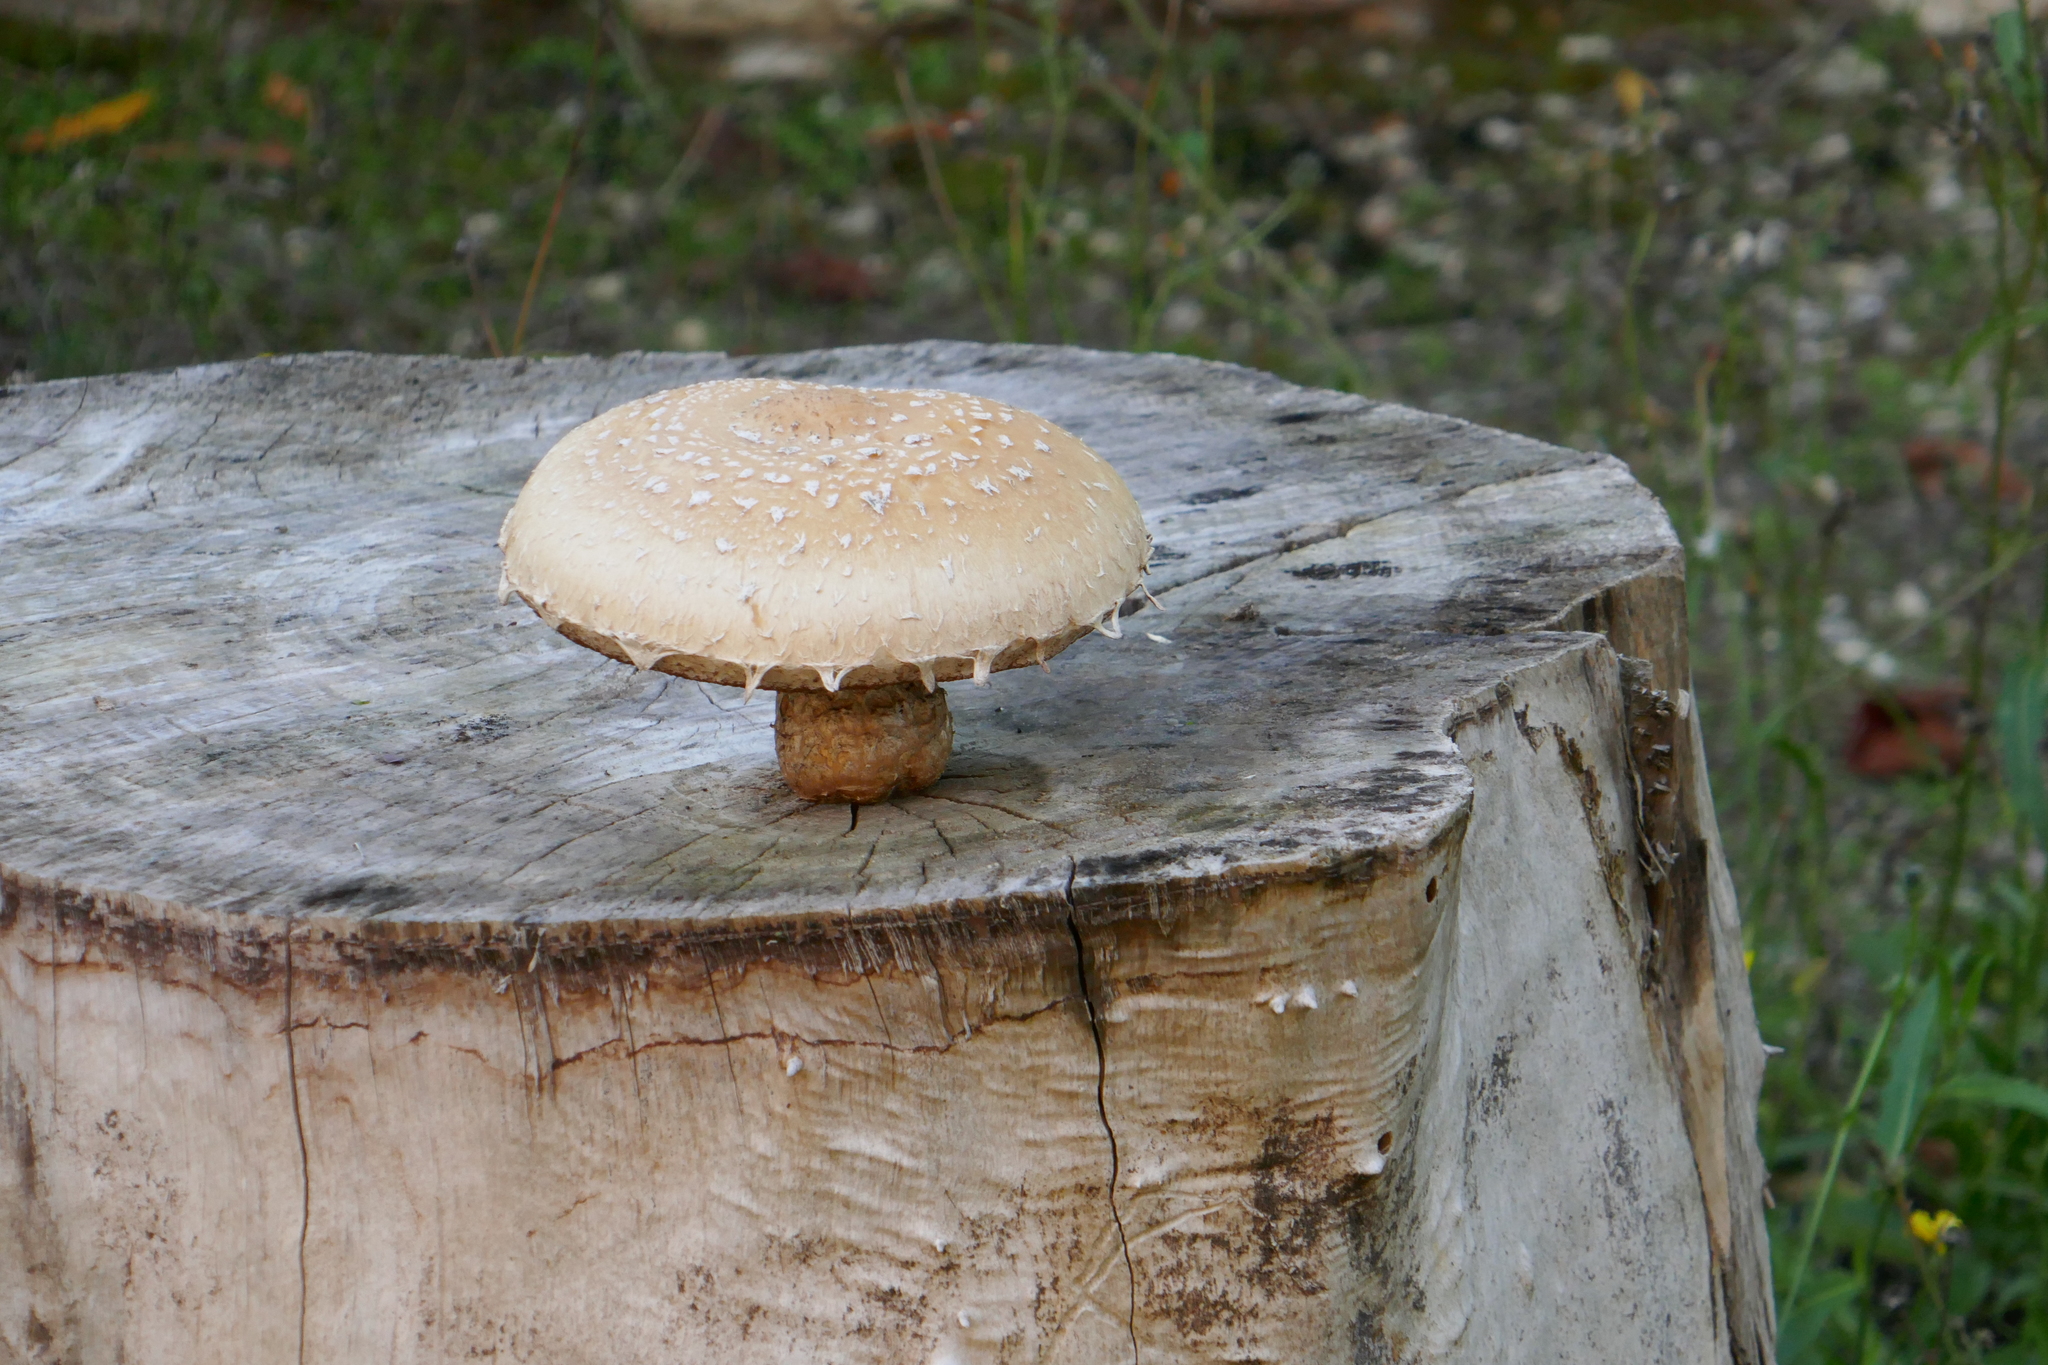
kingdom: Fungi
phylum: Basidiomycota
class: Agaricomycetes
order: Agaricales
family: Strophariaceae
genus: Pholiota
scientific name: Pholiota populnea
